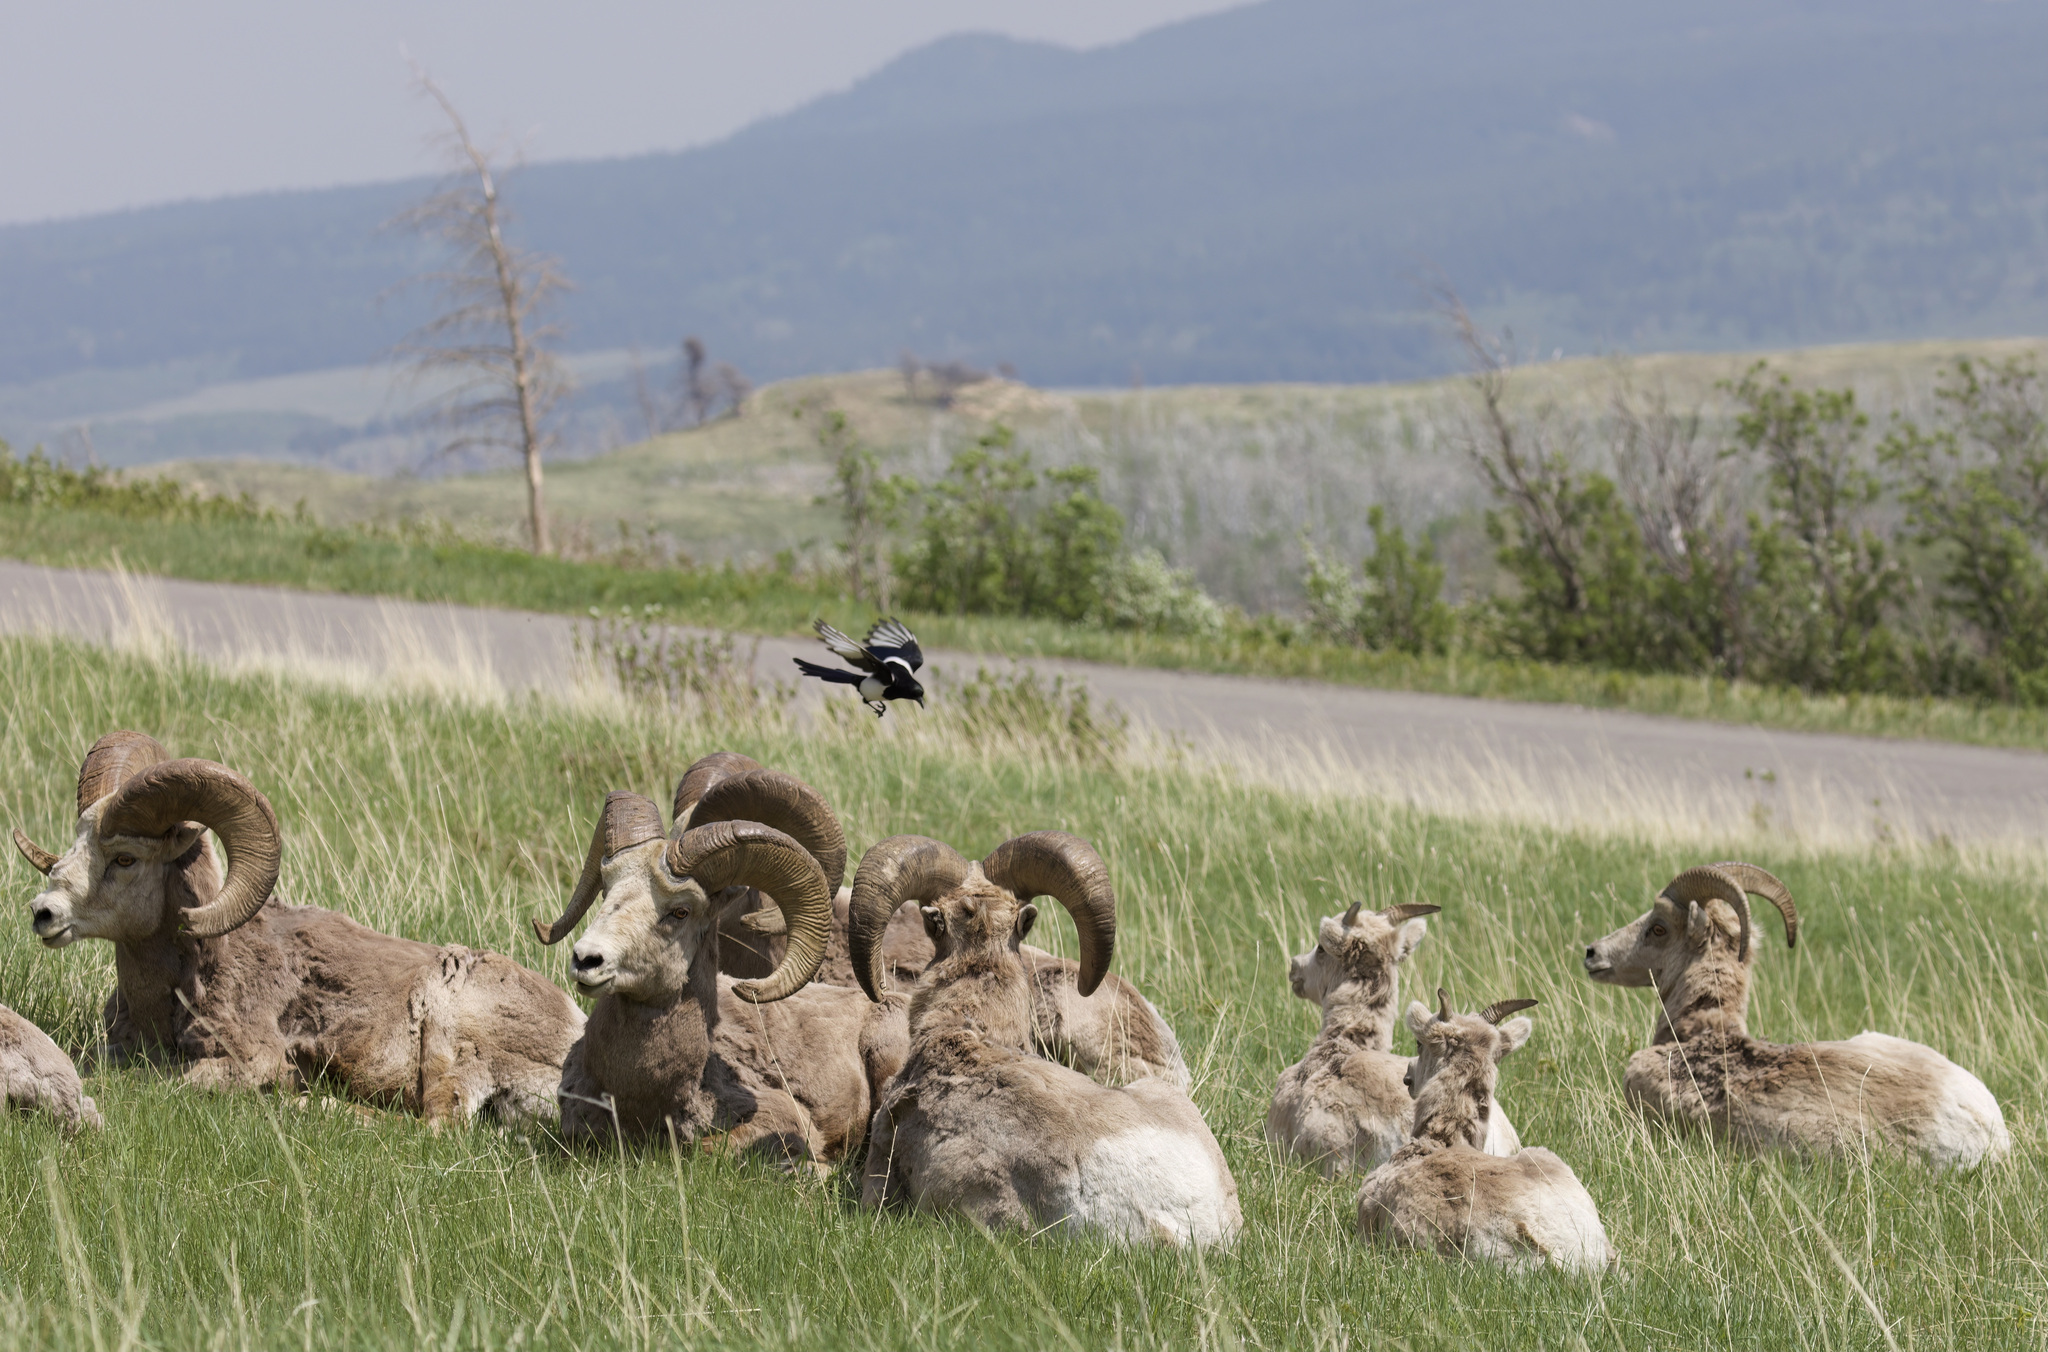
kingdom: Animalia
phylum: Chordata
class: Aves
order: Passeriformes
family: Corvidae
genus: Pica
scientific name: Pica hudsonia
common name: Black-billed magpie
